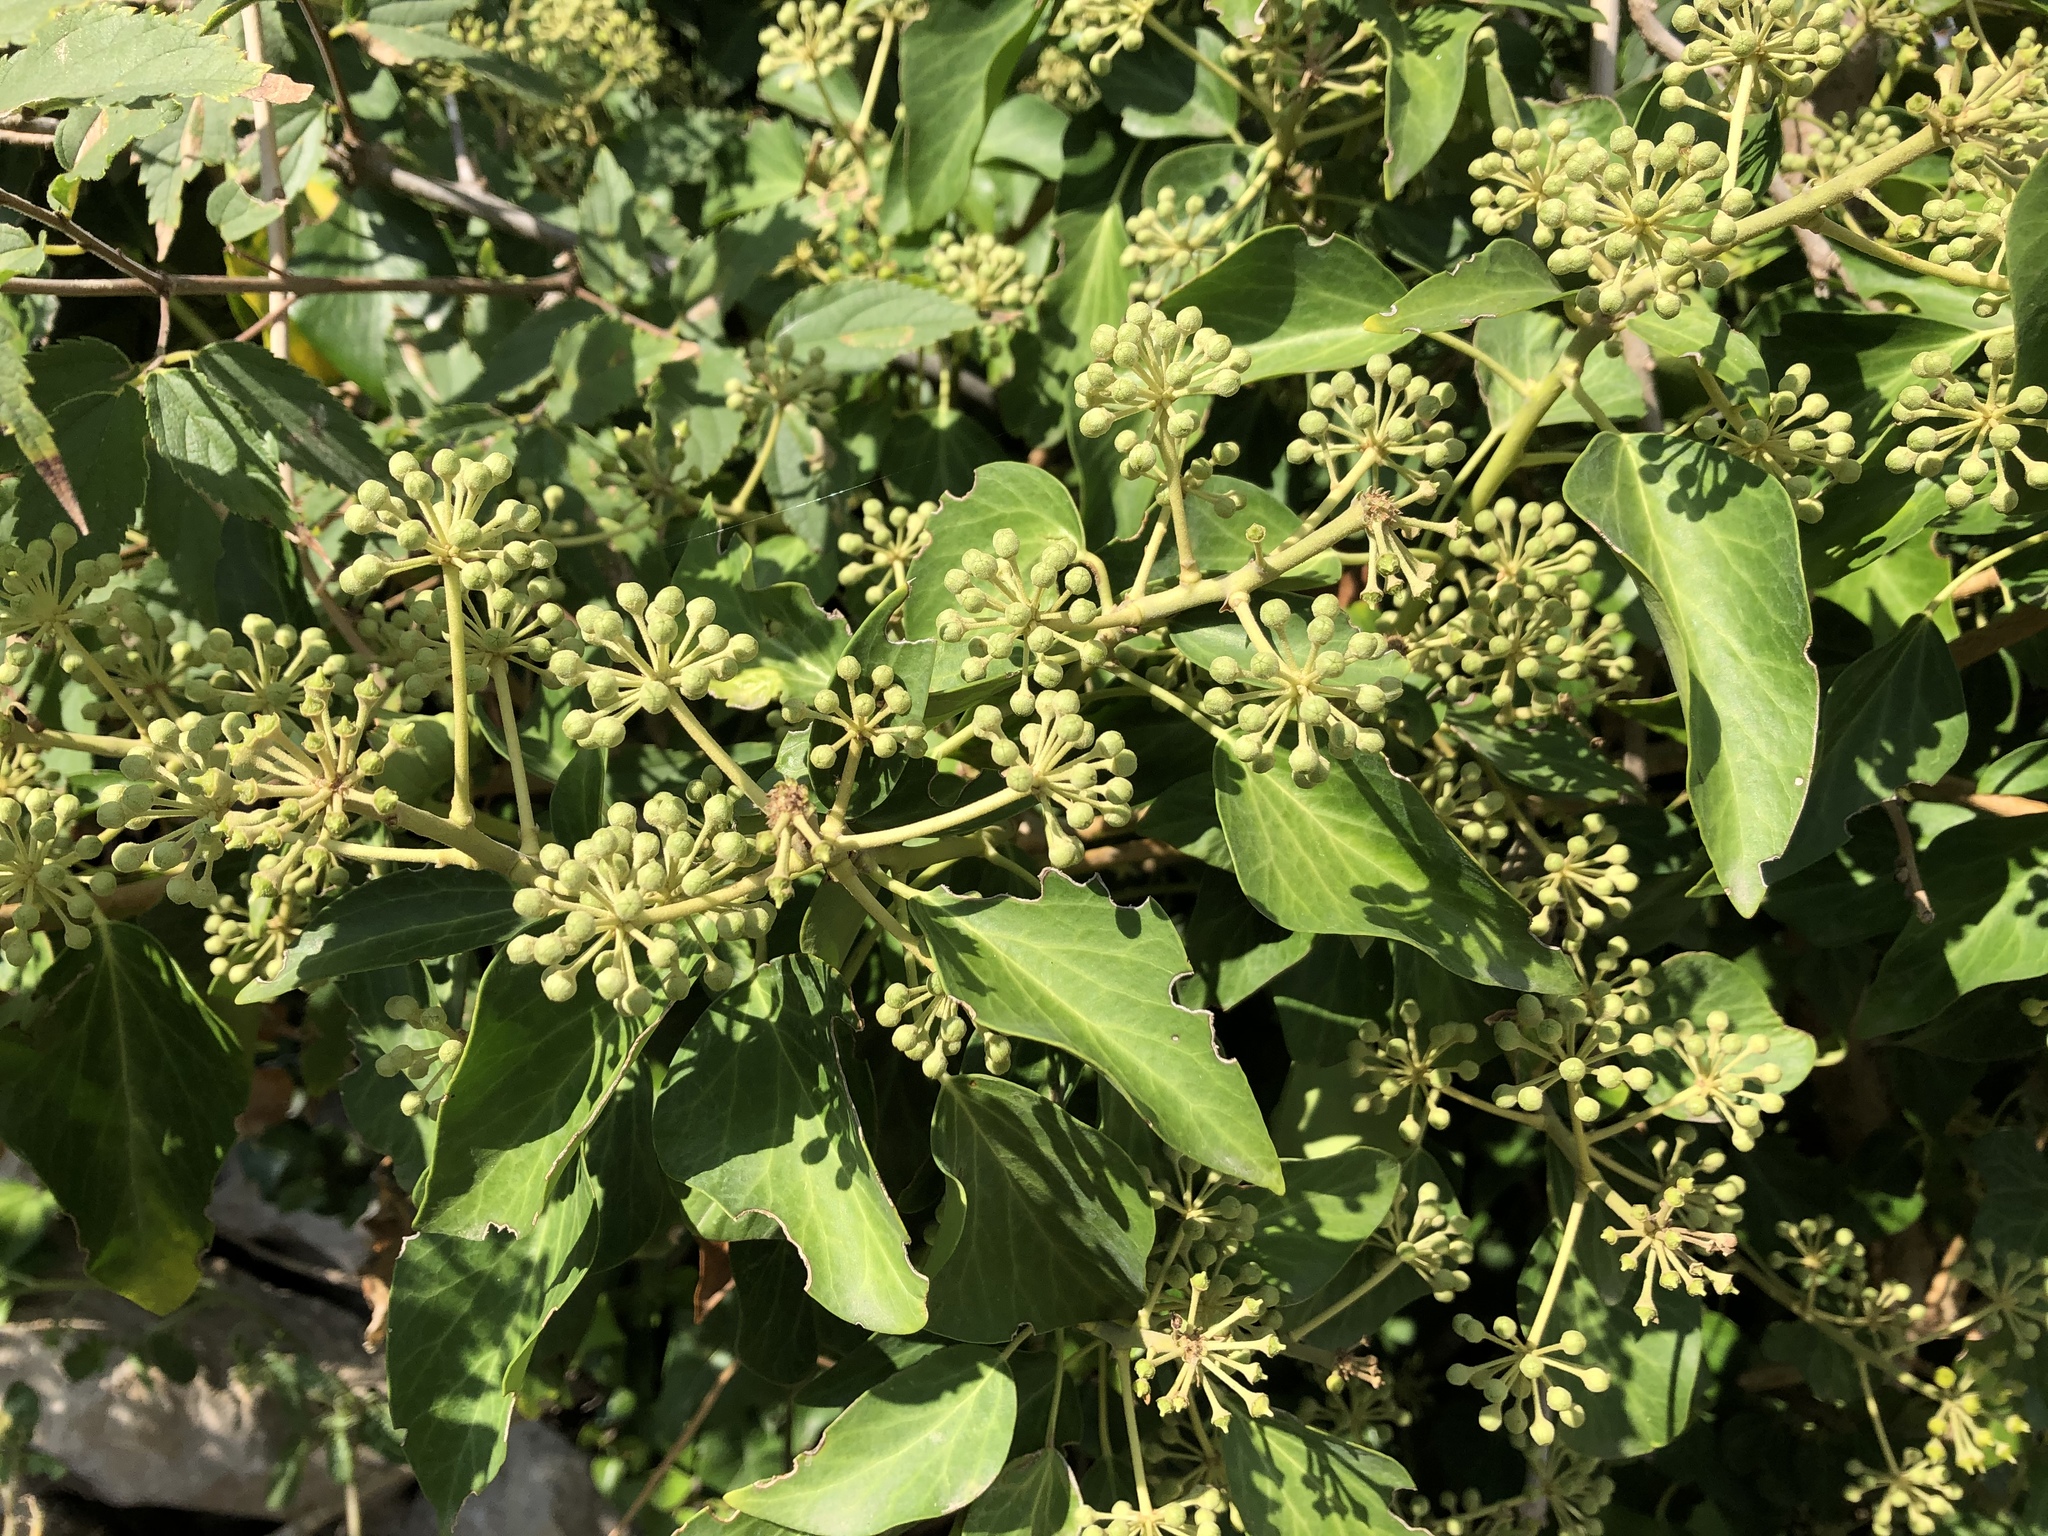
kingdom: Plantae
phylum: Tracheophyta
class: Magnoliopsida
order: Apiales
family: Araliaceae
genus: Hedera
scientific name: Hedera helix
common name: Ivy
